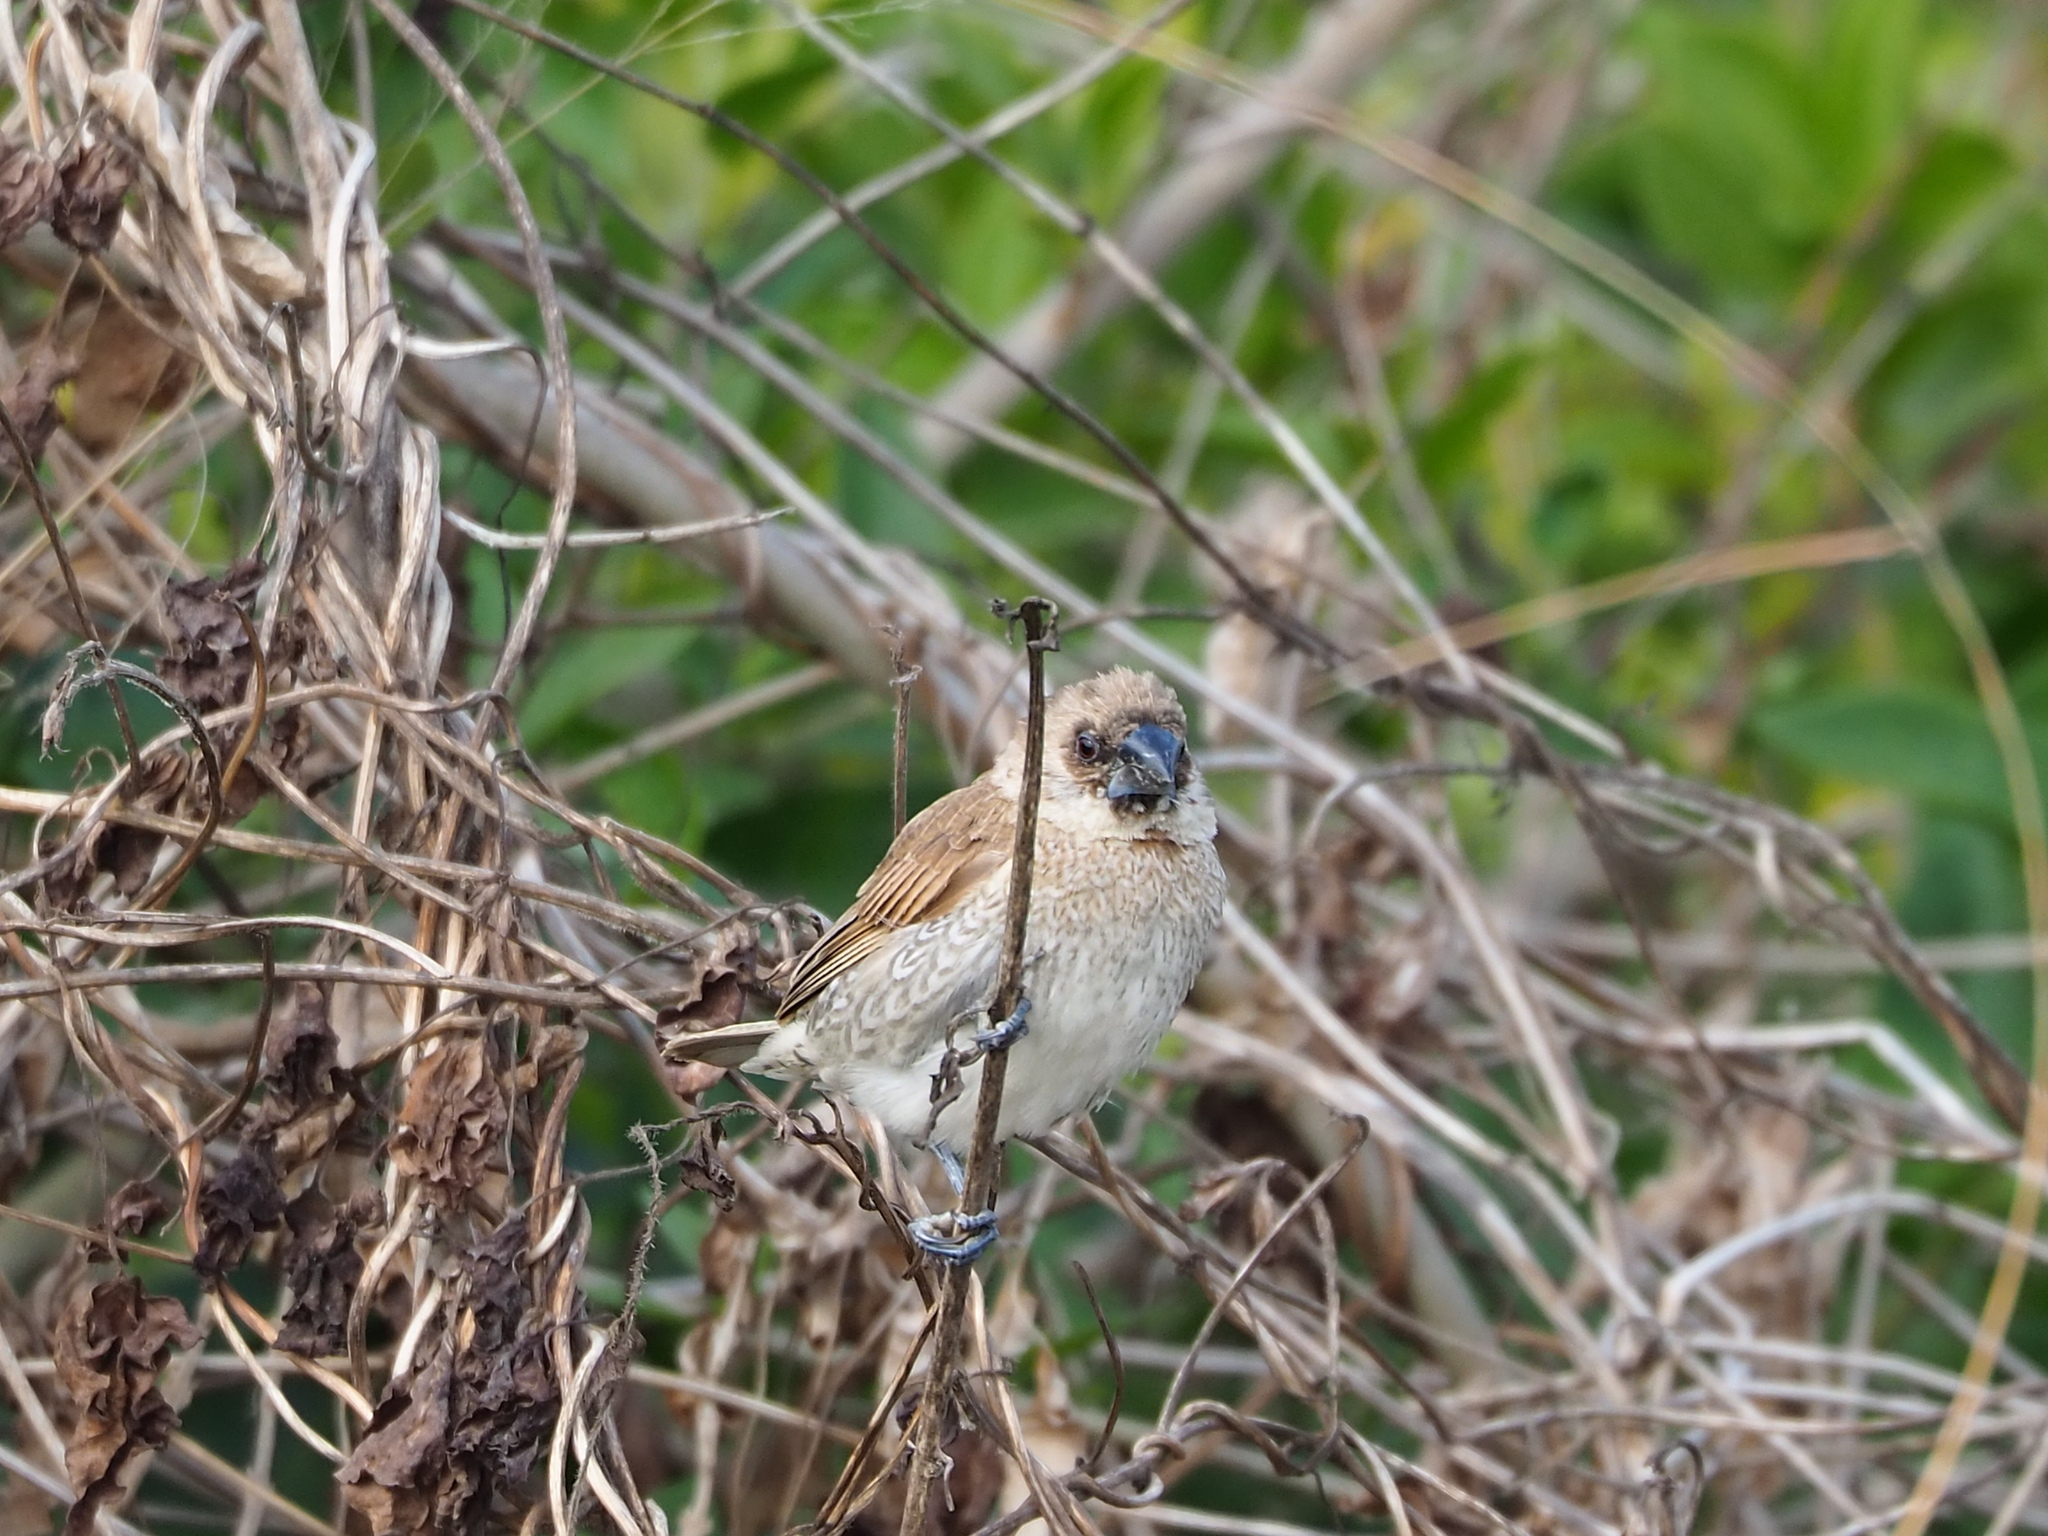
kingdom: Animalia
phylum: Chordata
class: Aves
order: Passeriformes
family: Estrildidae
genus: Lonchura
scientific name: Lonchura punctulata
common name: Scaly-breasted munia
